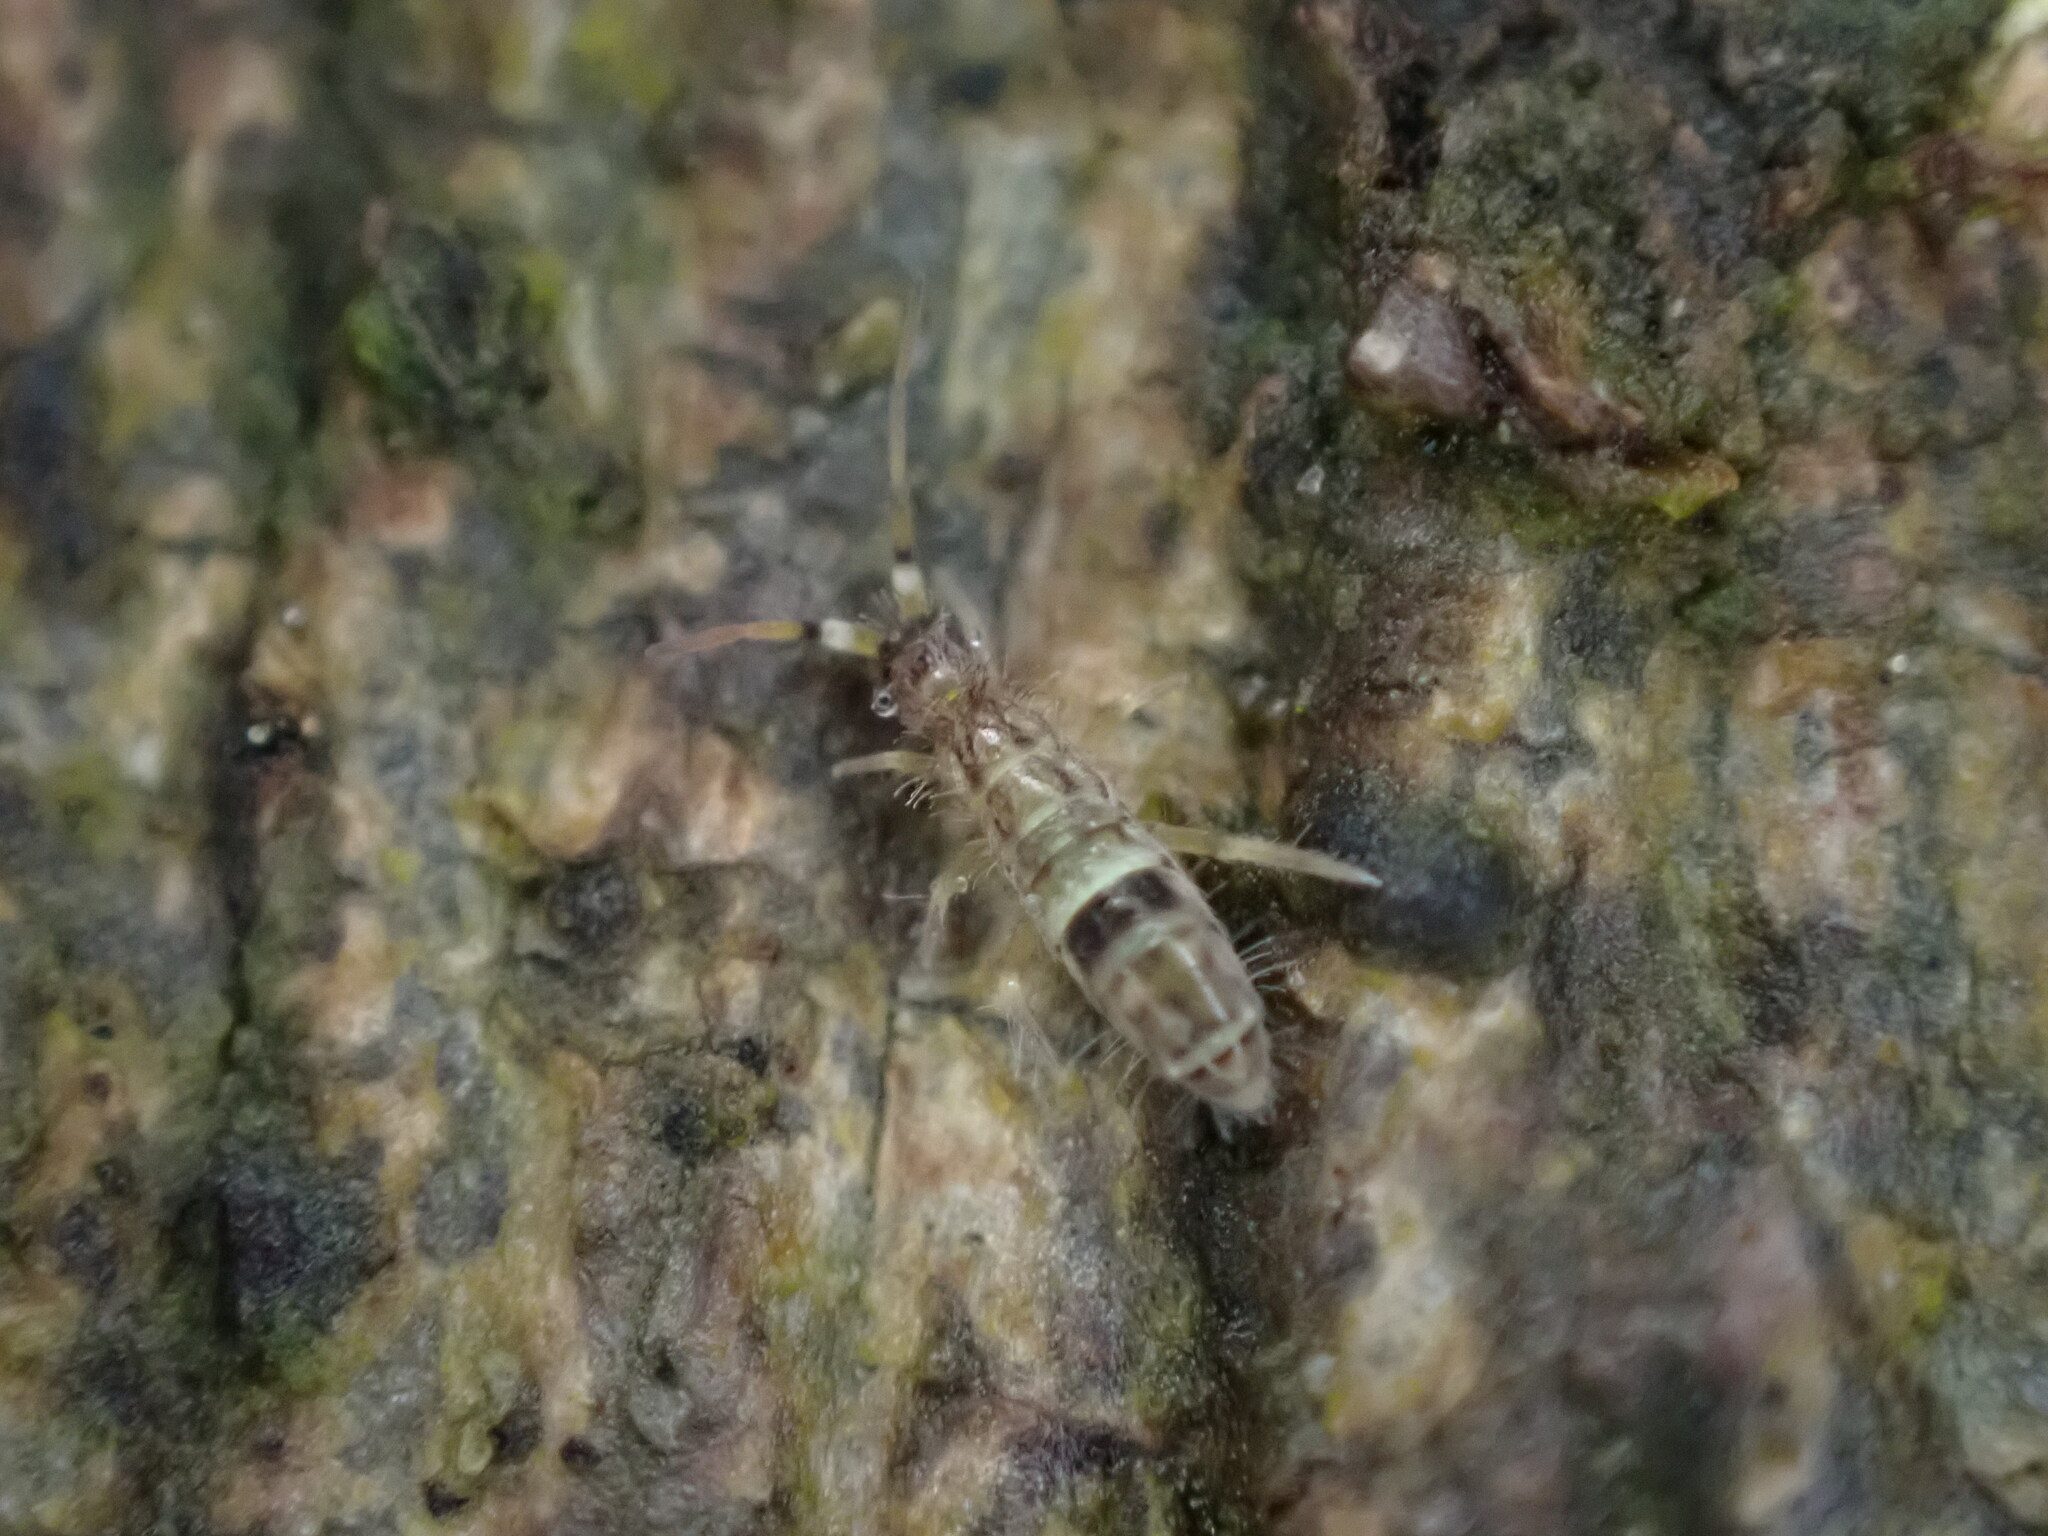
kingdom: Animalia
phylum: Arthropoda
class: Collembola
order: Entomobryomorpha
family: Orchesellidae
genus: Orchesella
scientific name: Orchesella cincta
